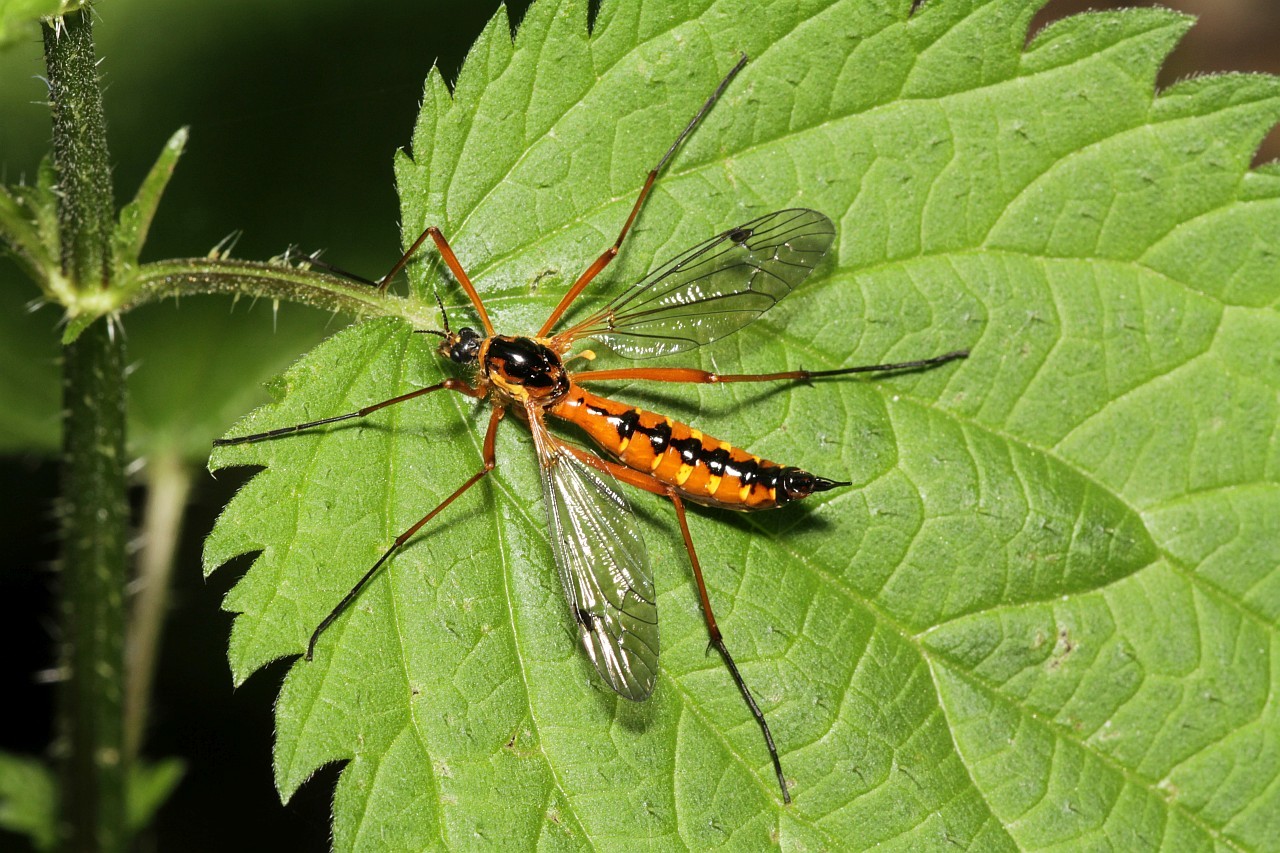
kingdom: Animalia
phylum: Arthropoda
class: Insecta
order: Diptera
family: Tipulidae
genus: Ctenophora
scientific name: Ctenophora pectinicornis
